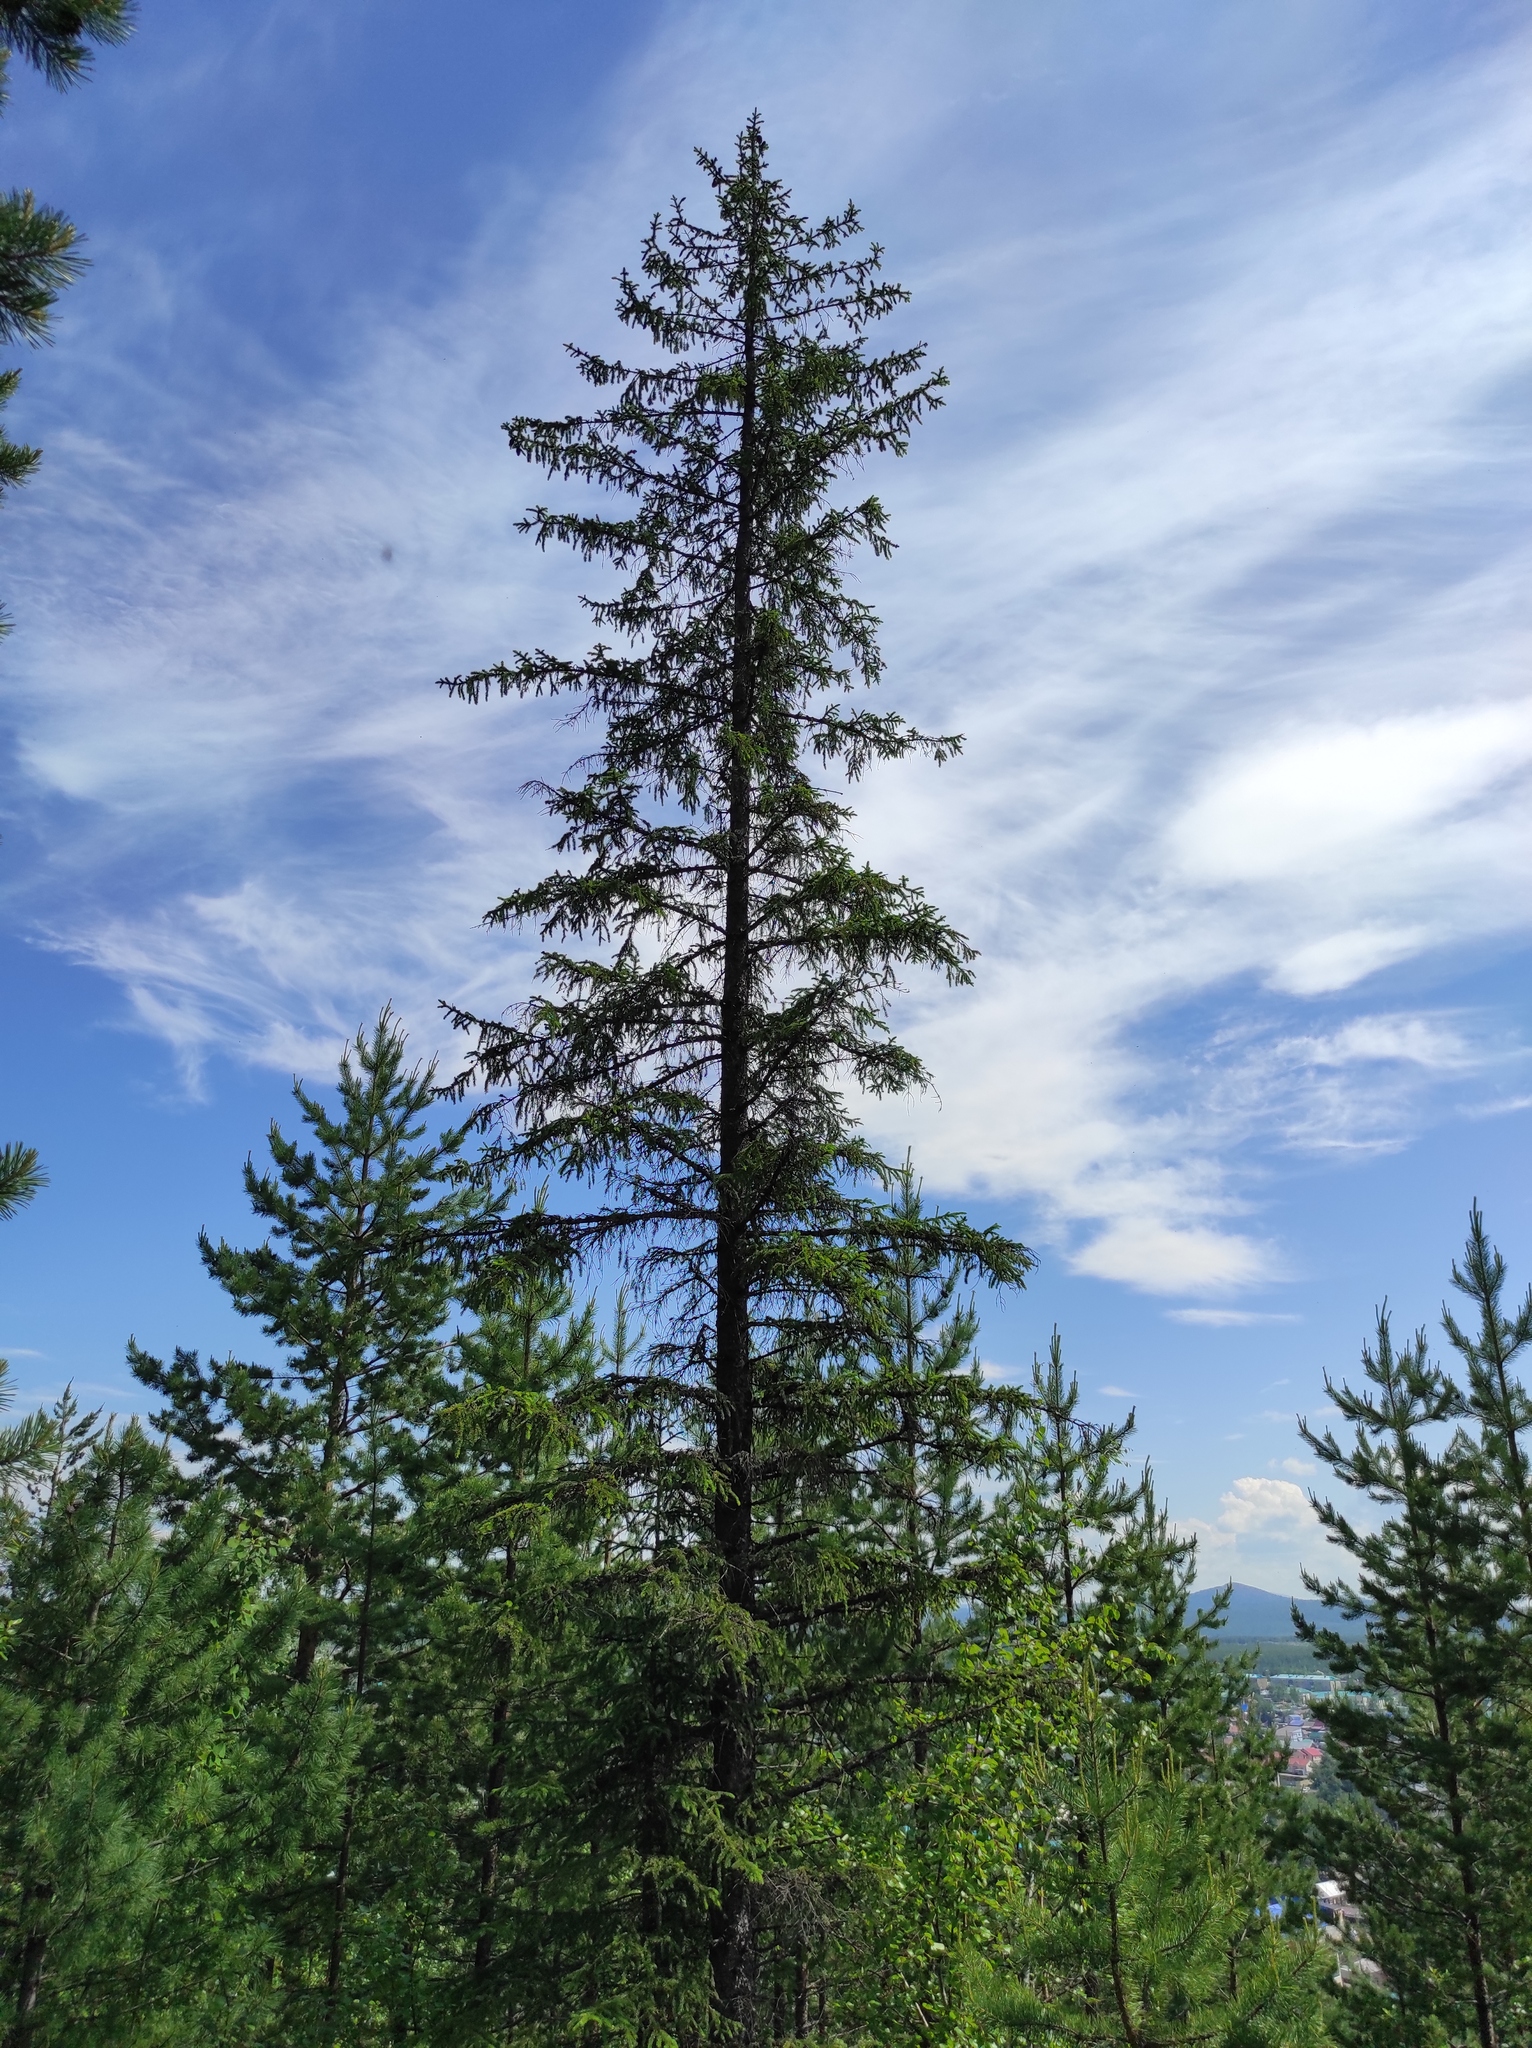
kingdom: Plantae
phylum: Tracheophyta
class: Pinopsida
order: Pinales
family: Pinaceae
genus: Picea
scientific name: Picea obovata
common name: Siberian spruce
